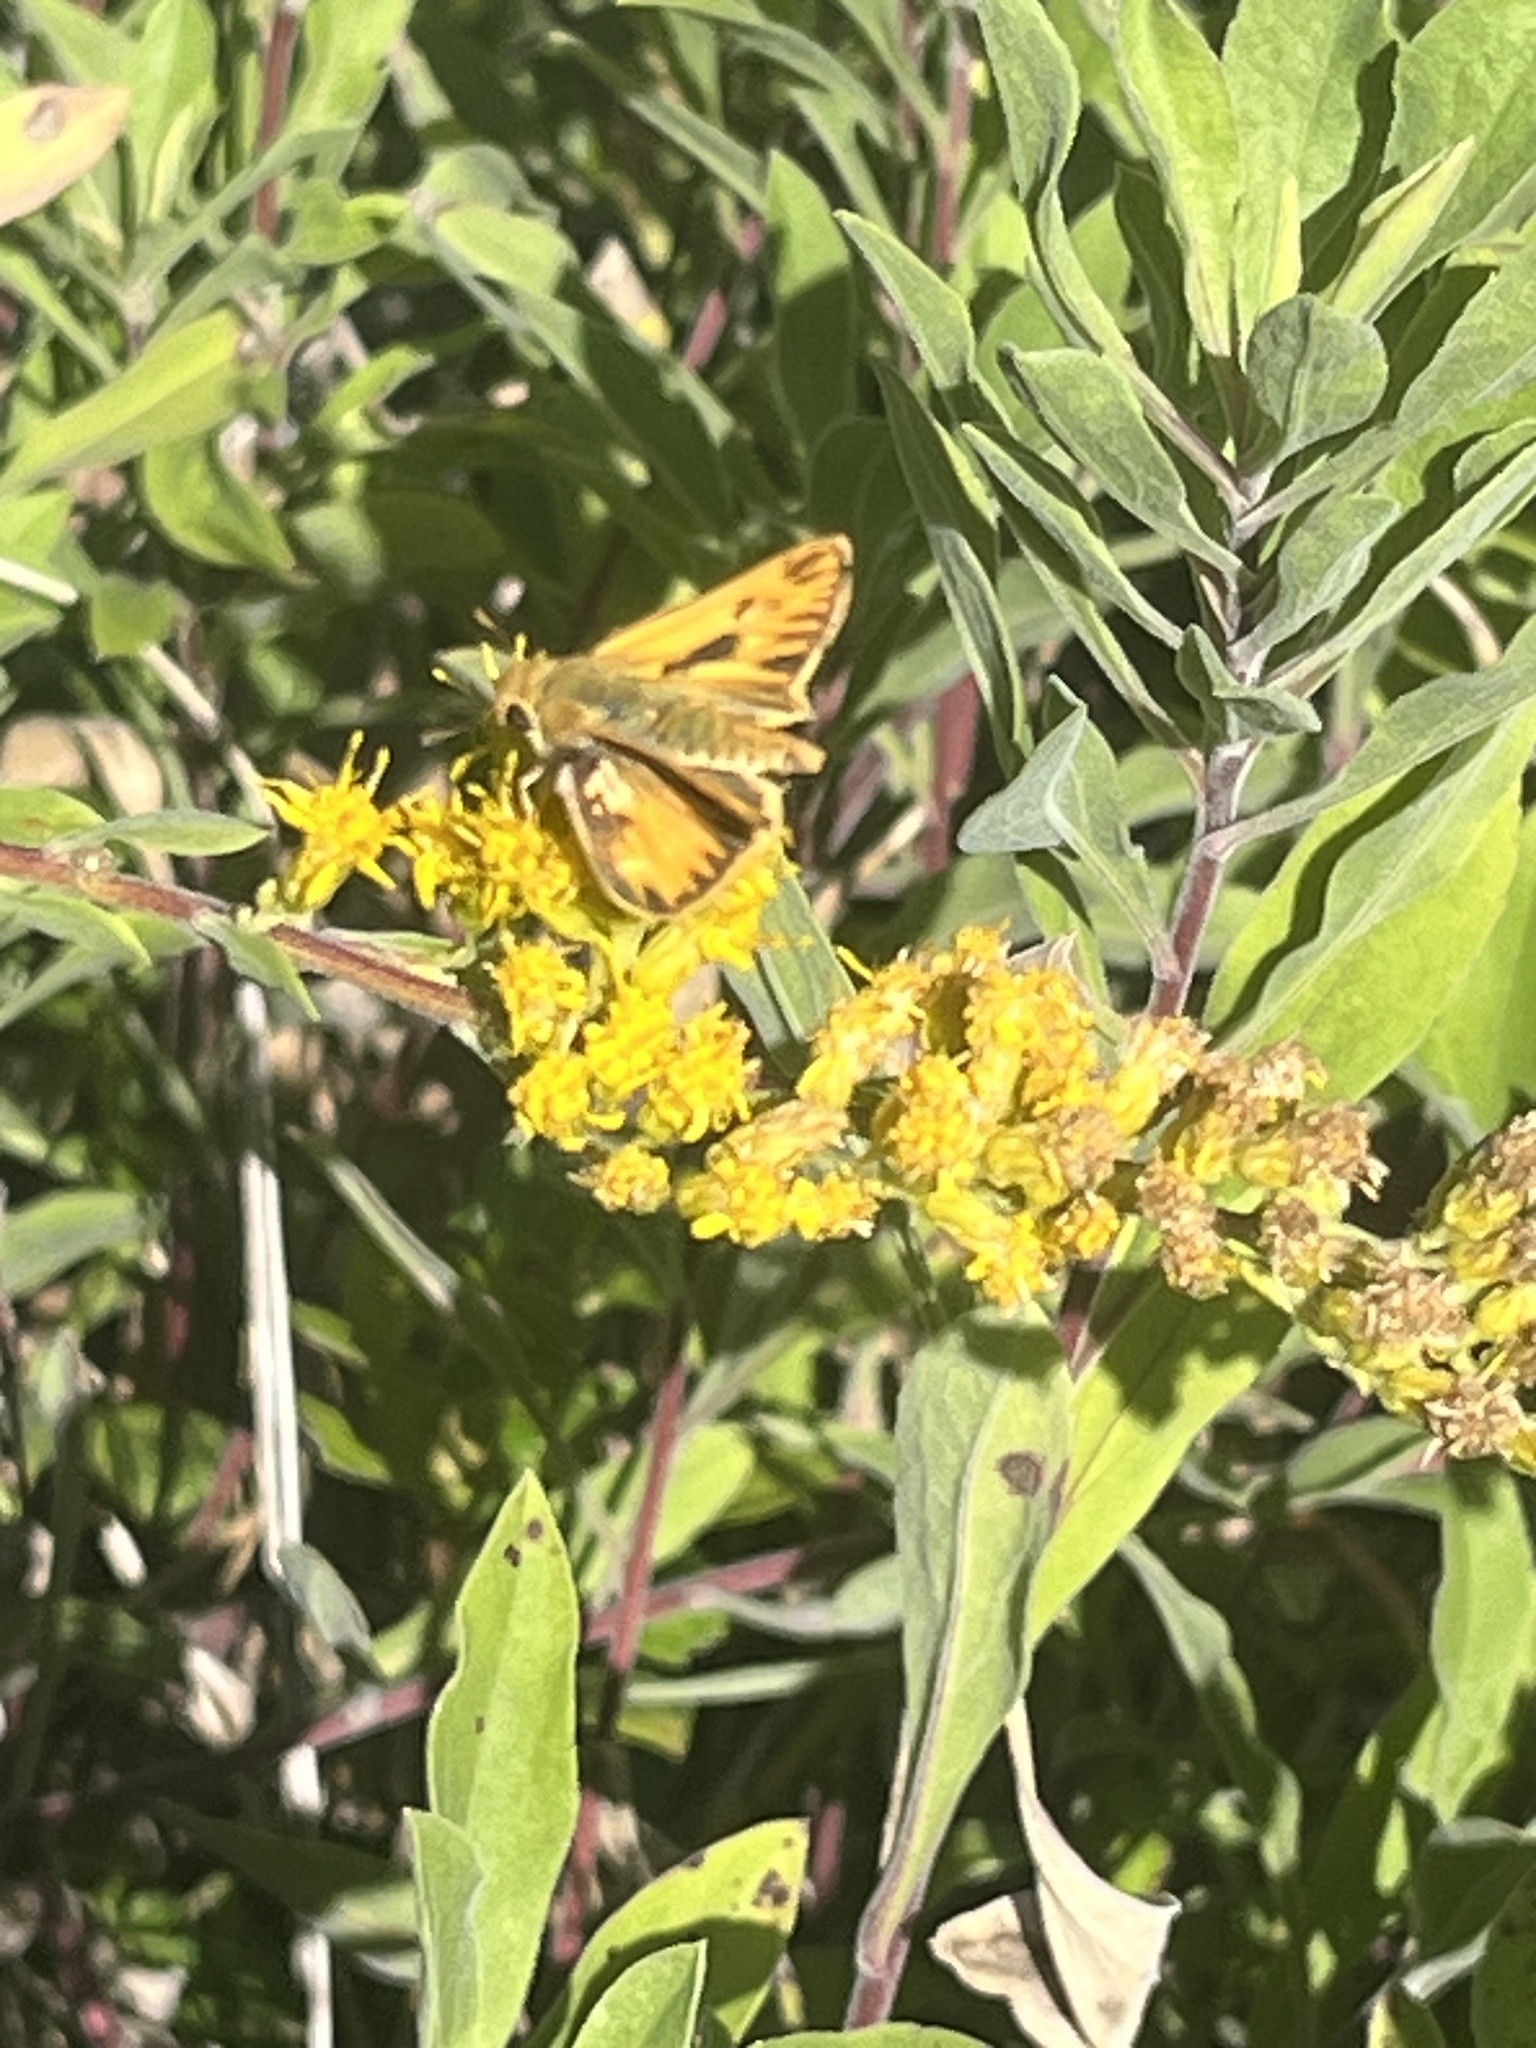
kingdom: Animalia
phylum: Arthropoda
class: Insecta
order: Lepidoptera
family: Hesperiidae
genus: Hylephila
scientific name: Hylephila phyleus
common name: Fiery skipper
